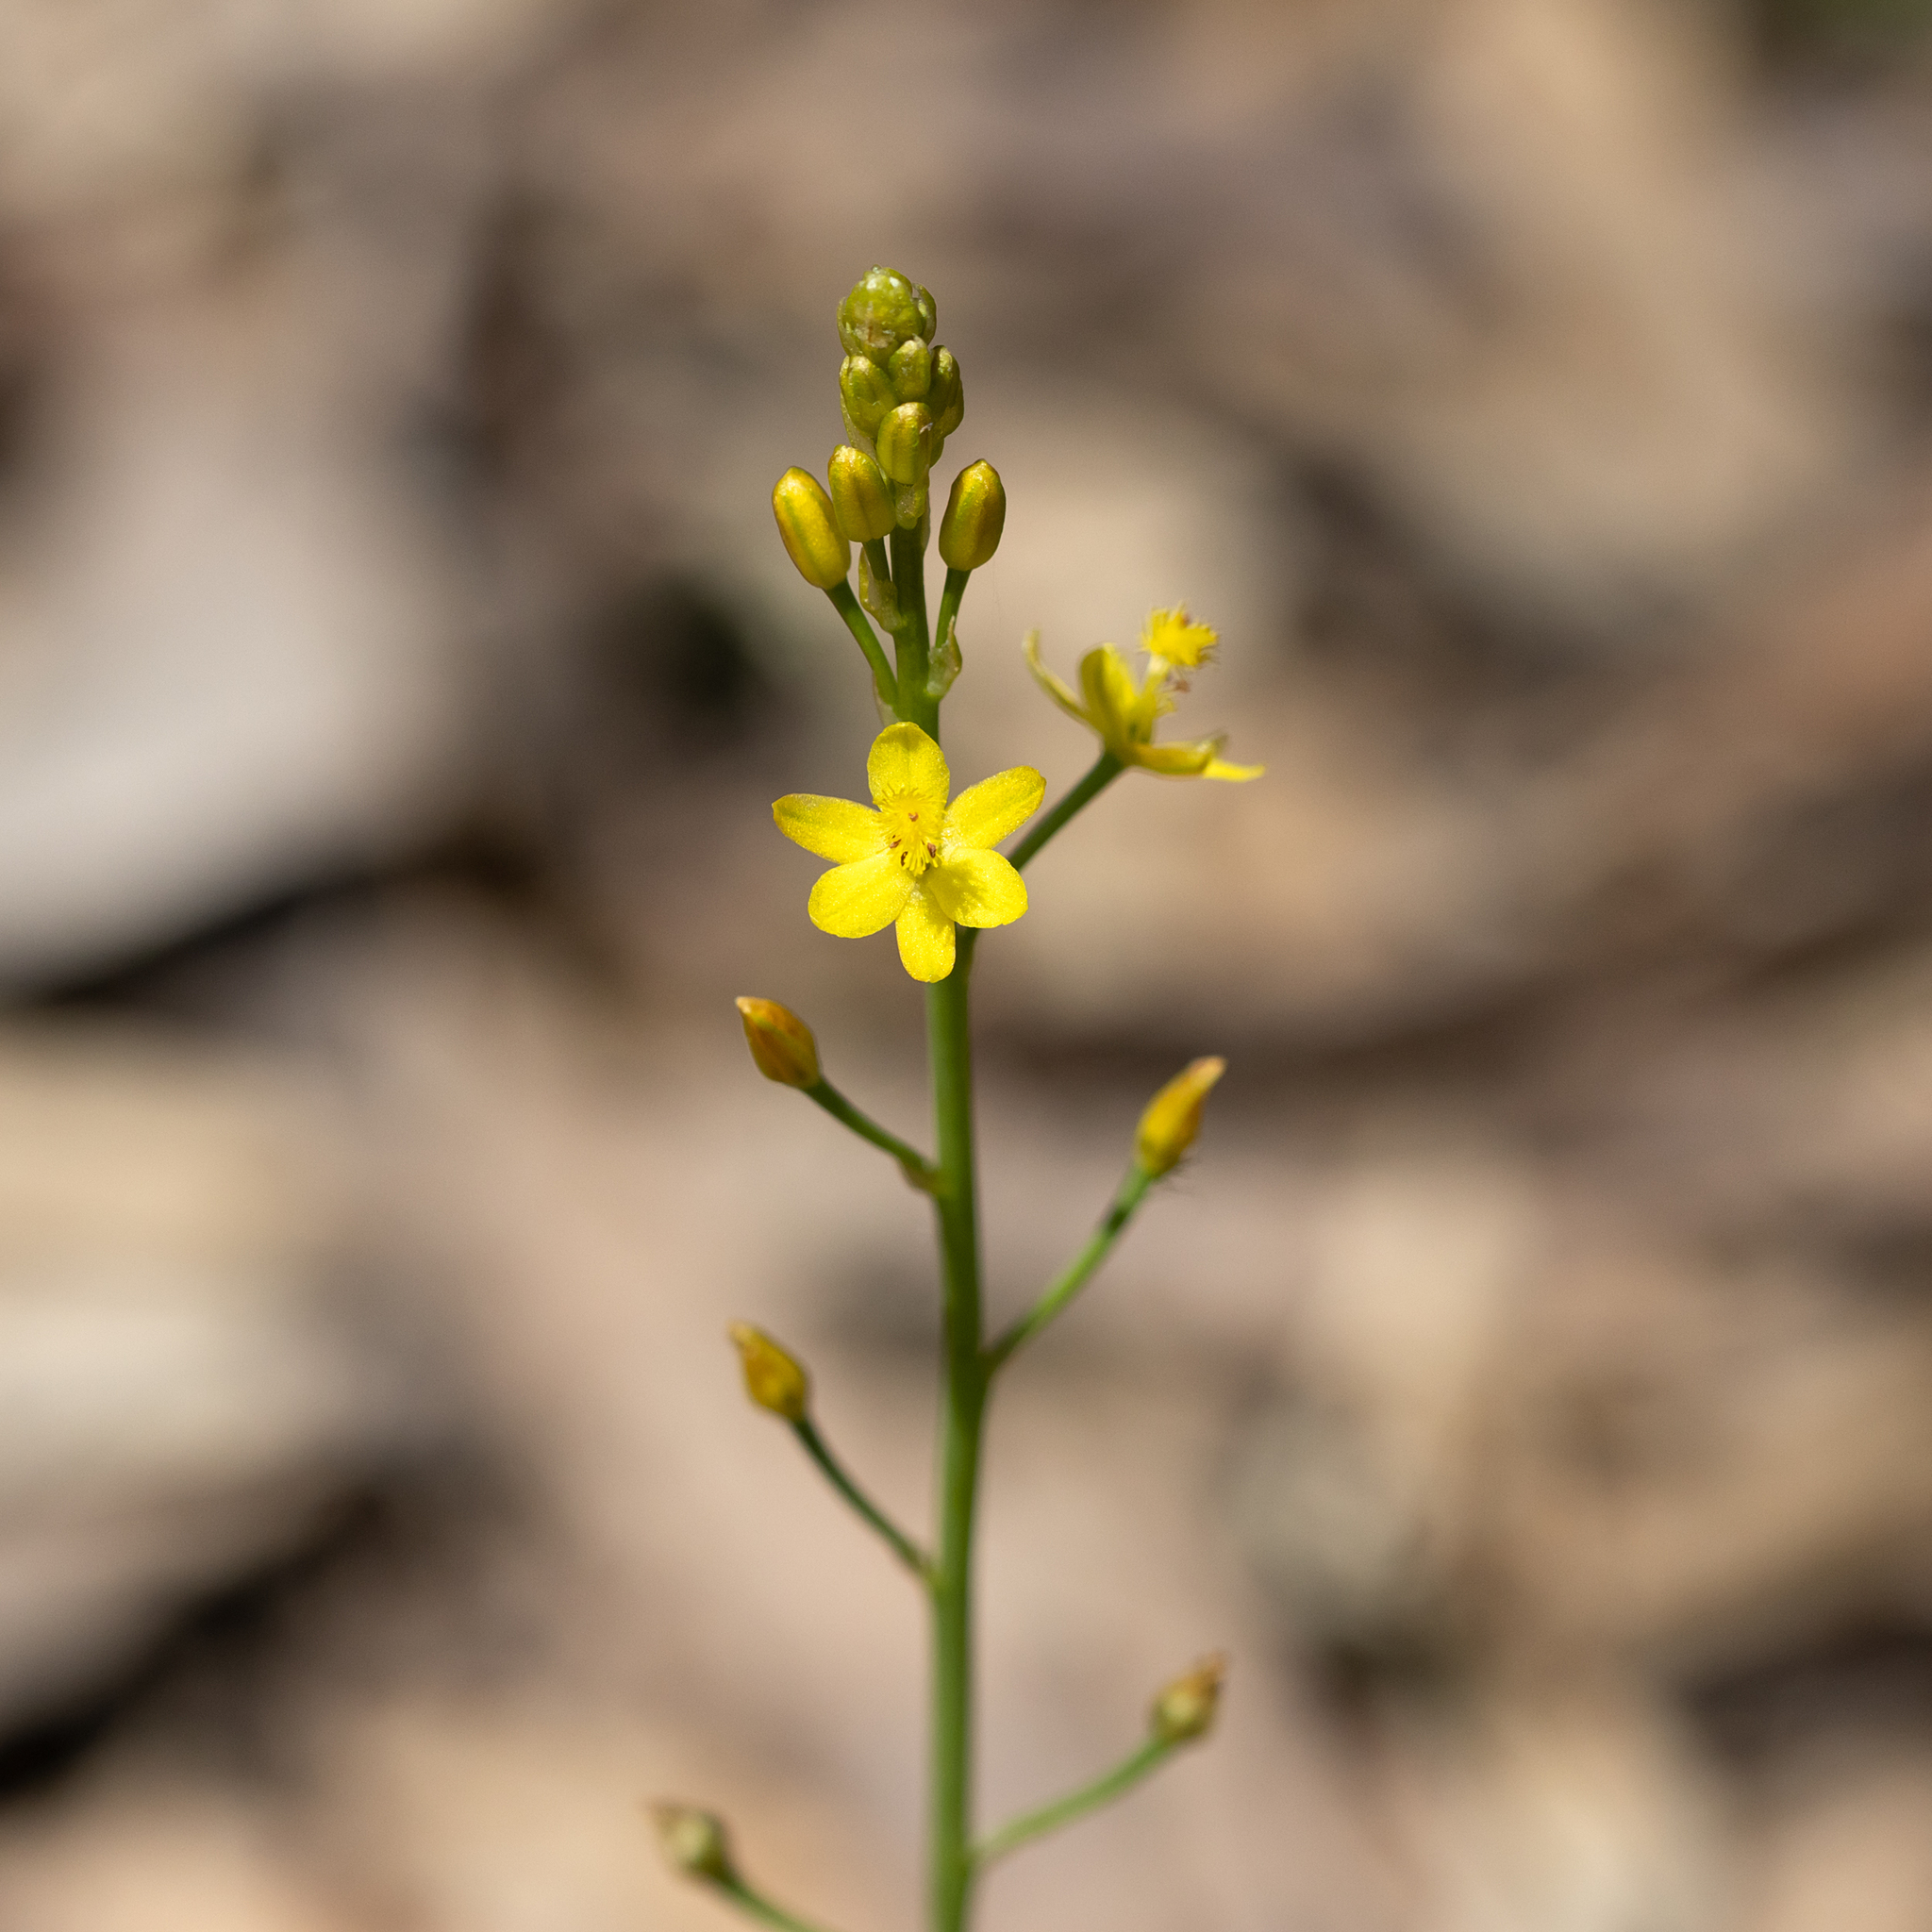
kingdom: Plantae
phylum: Tracheophyta
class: Liliopsida
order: Asparagales
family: Asphodelaceae
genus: Bulbine
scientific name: Bulbine semibarbata
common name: Leek lily
